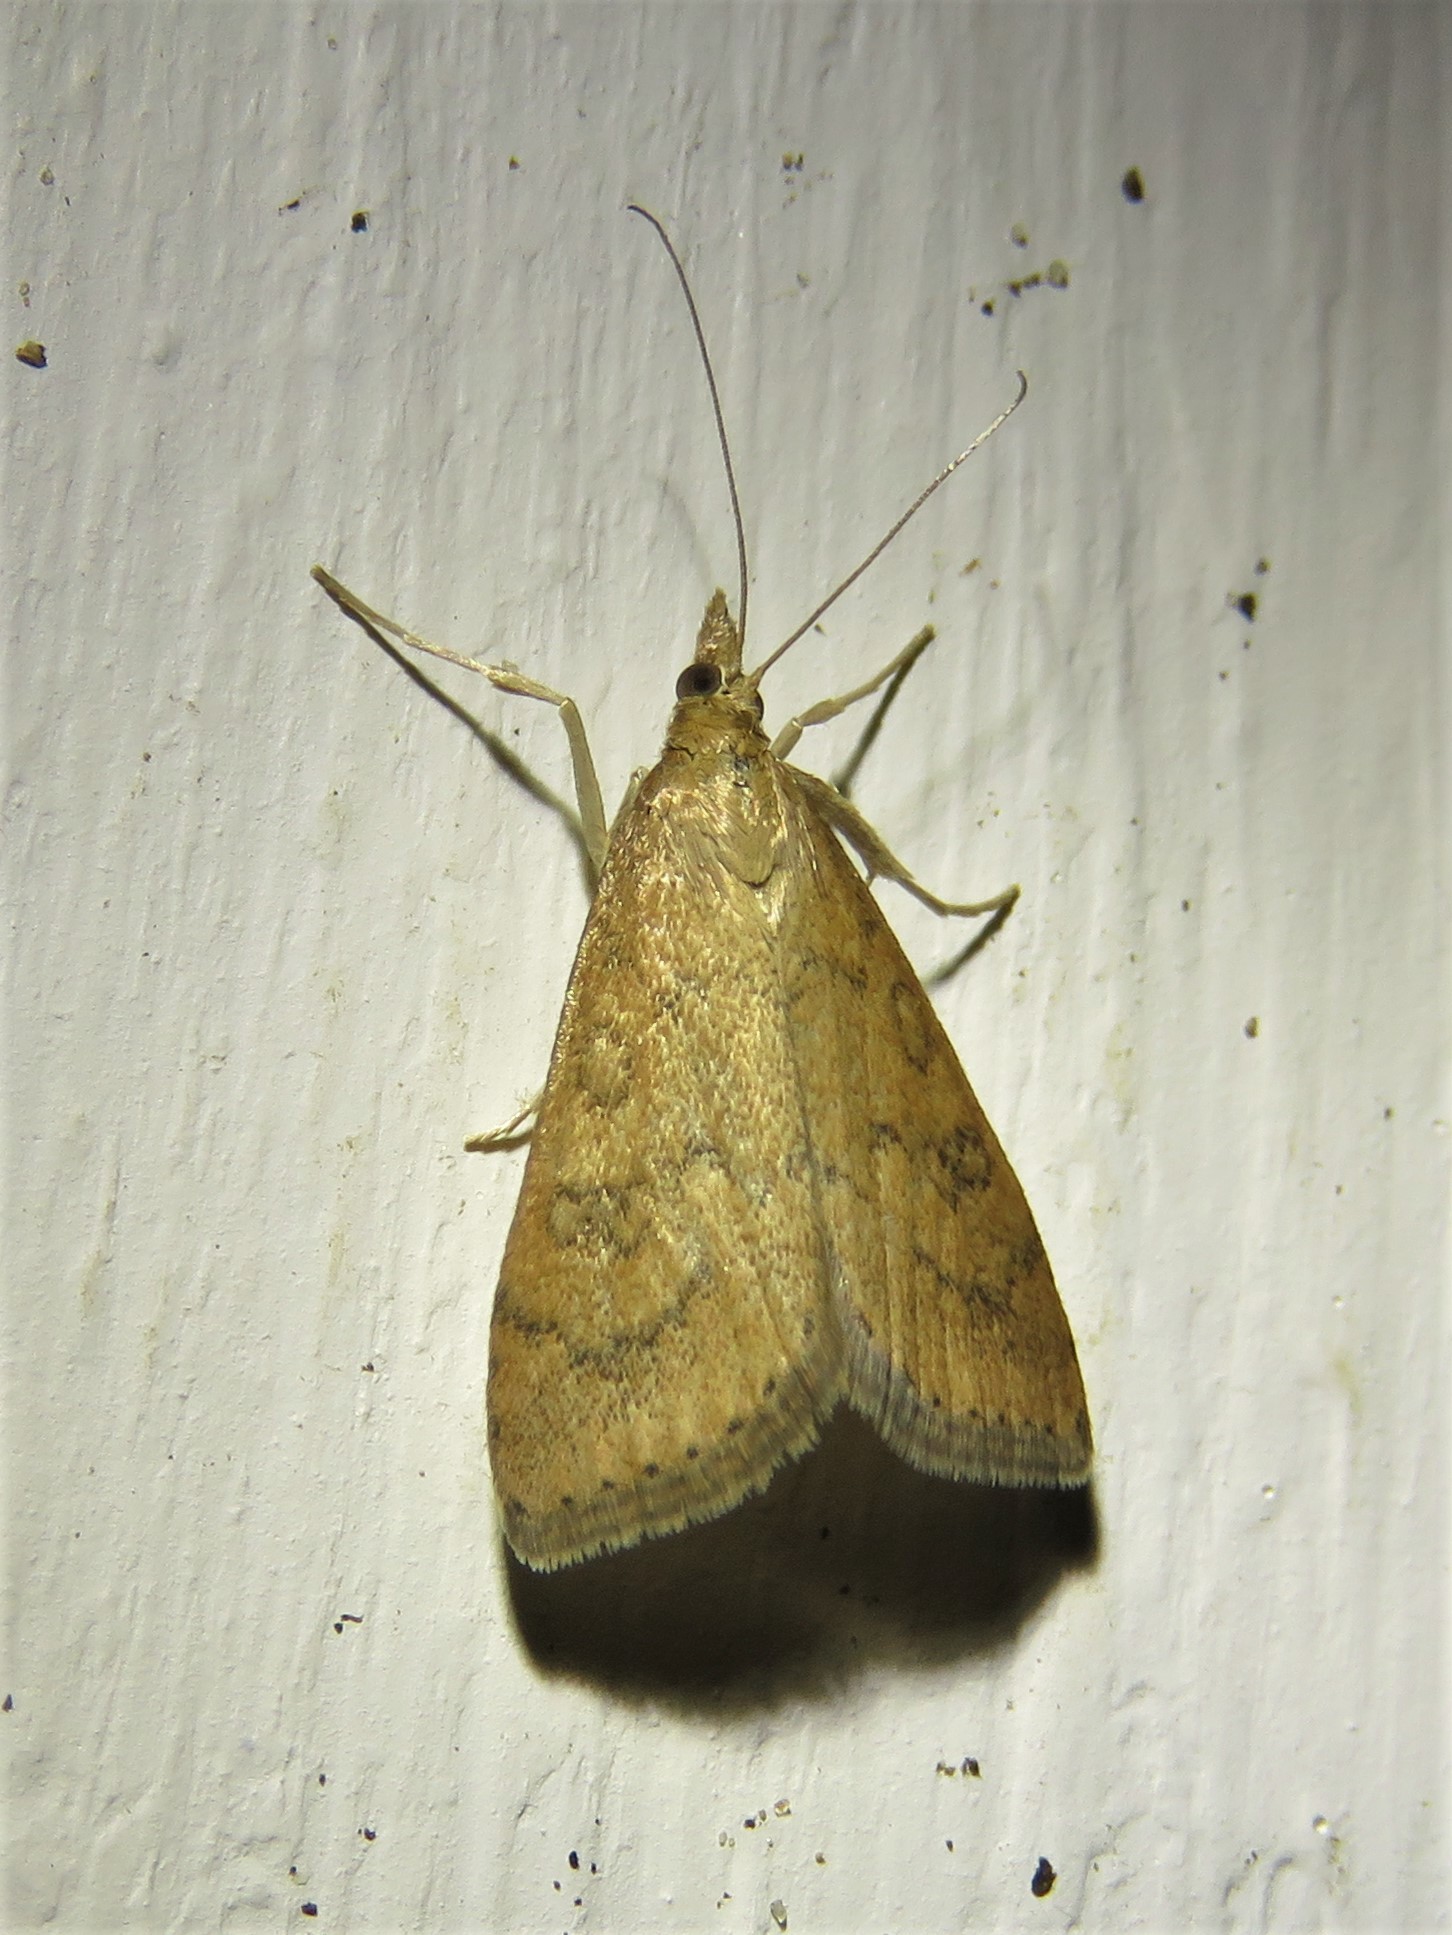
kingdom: Animalia
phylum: Arthropoda
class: Insecta
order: Lepidoptera
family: Crambidae
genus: Udea
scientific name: Udea rubigalis
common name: Celery leaftier moth
